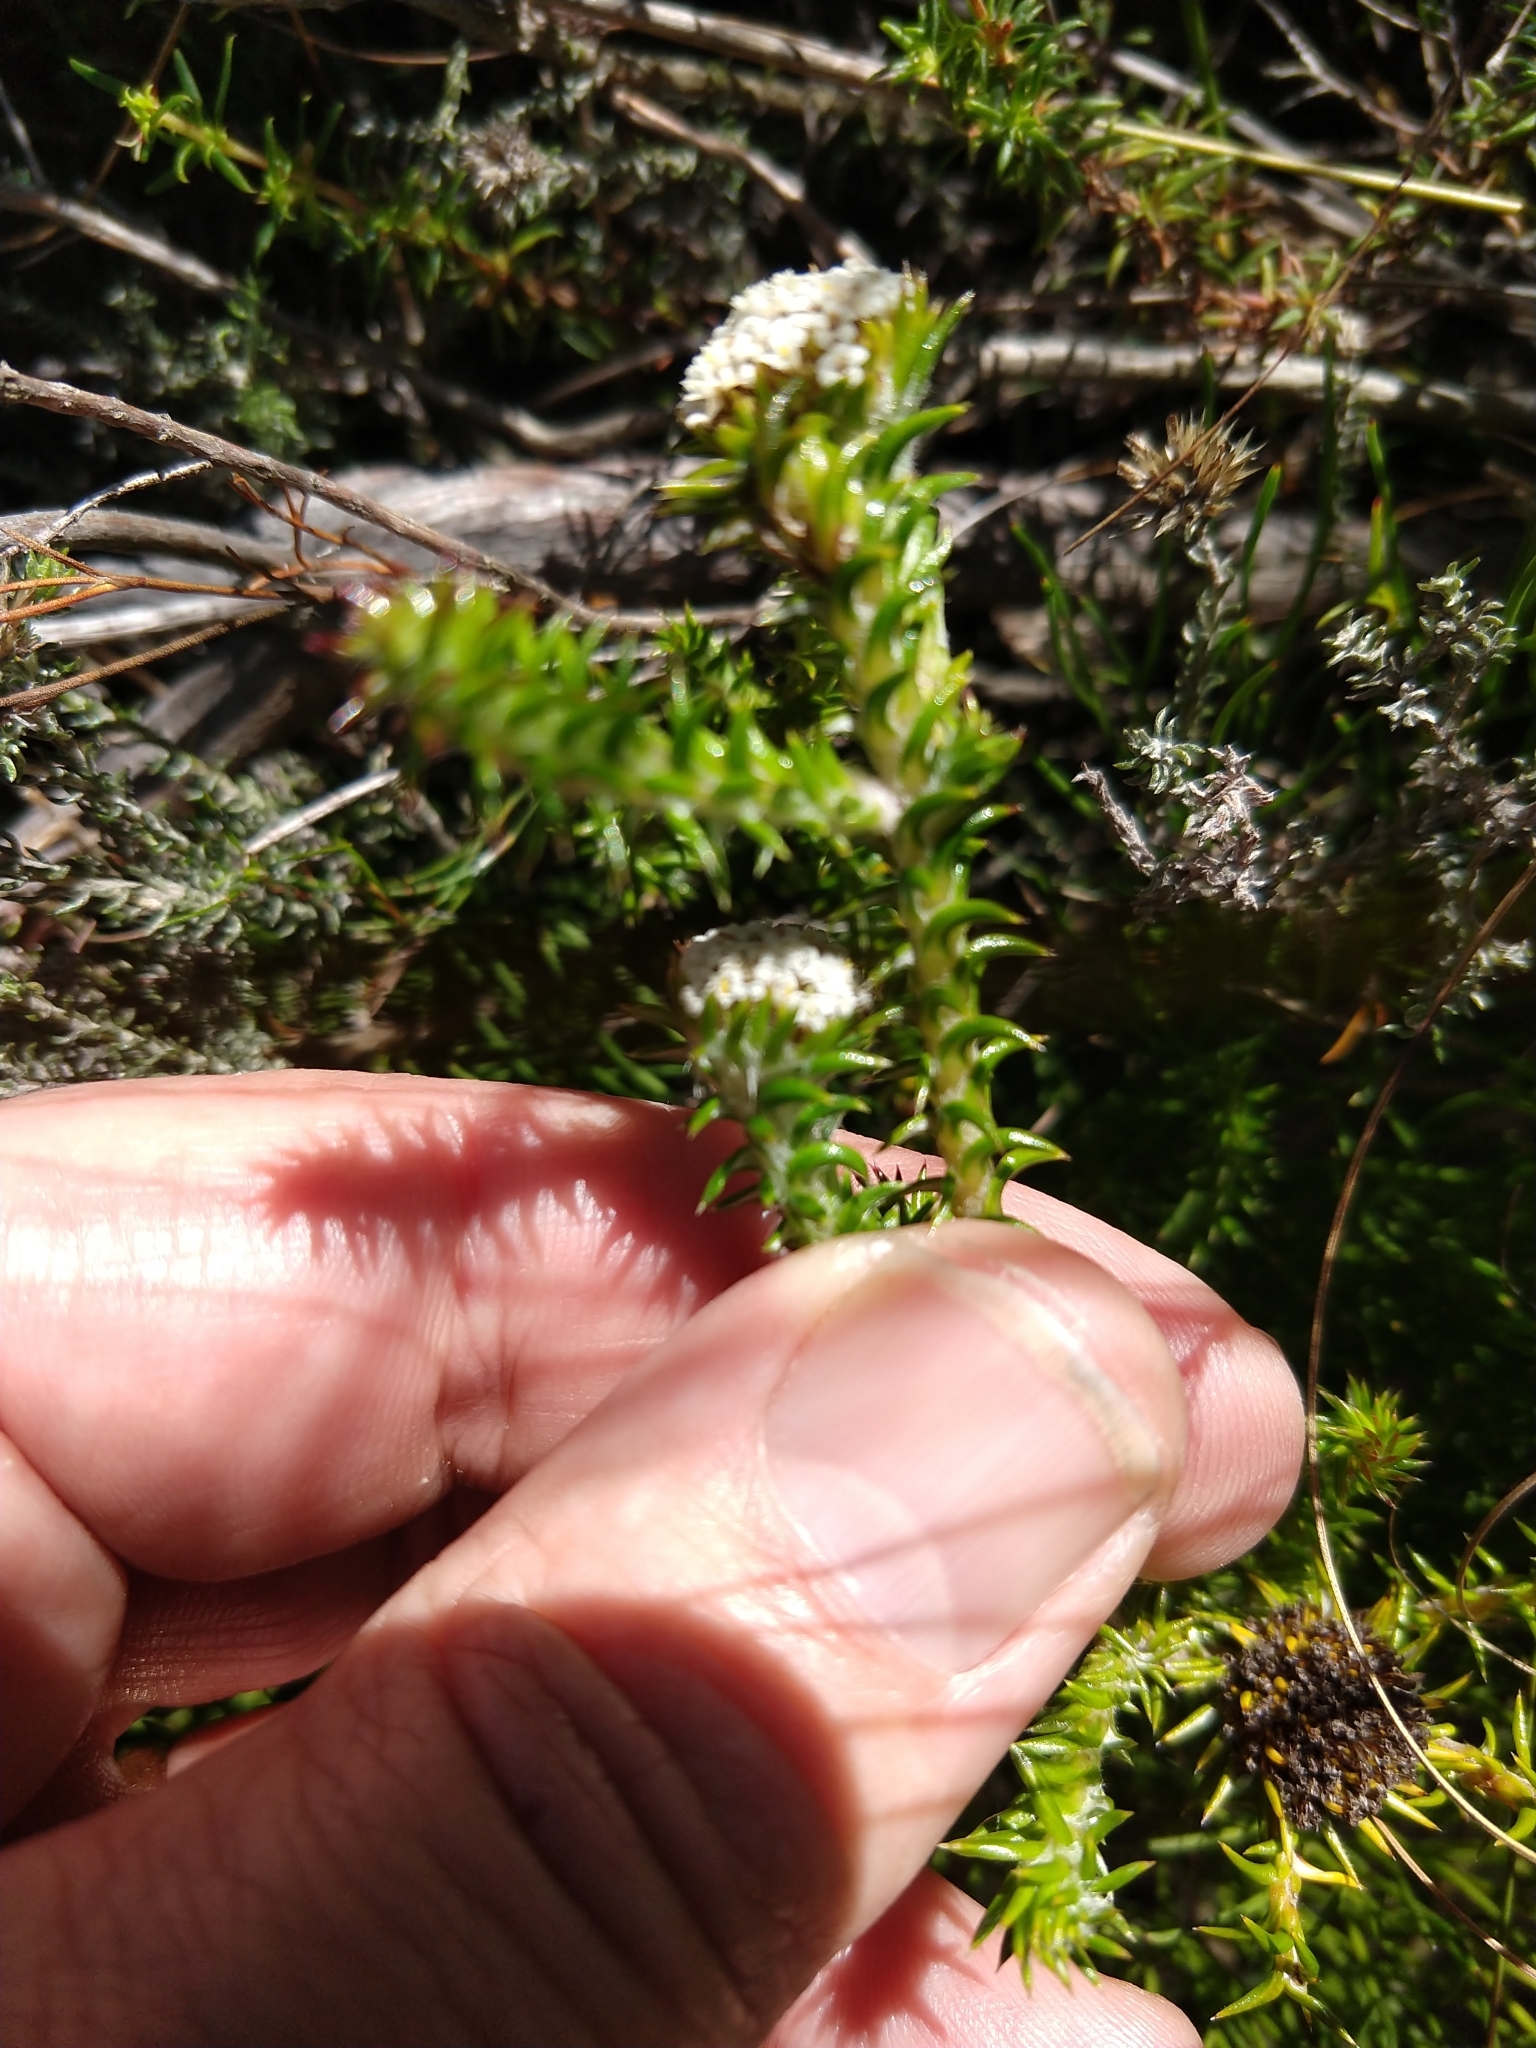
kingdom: Plantae
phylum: Tracheophyta
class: Magnoliopsida
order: Asterales
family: Asteraceae
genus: Stoebe
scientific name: Stoebe aethiopica
